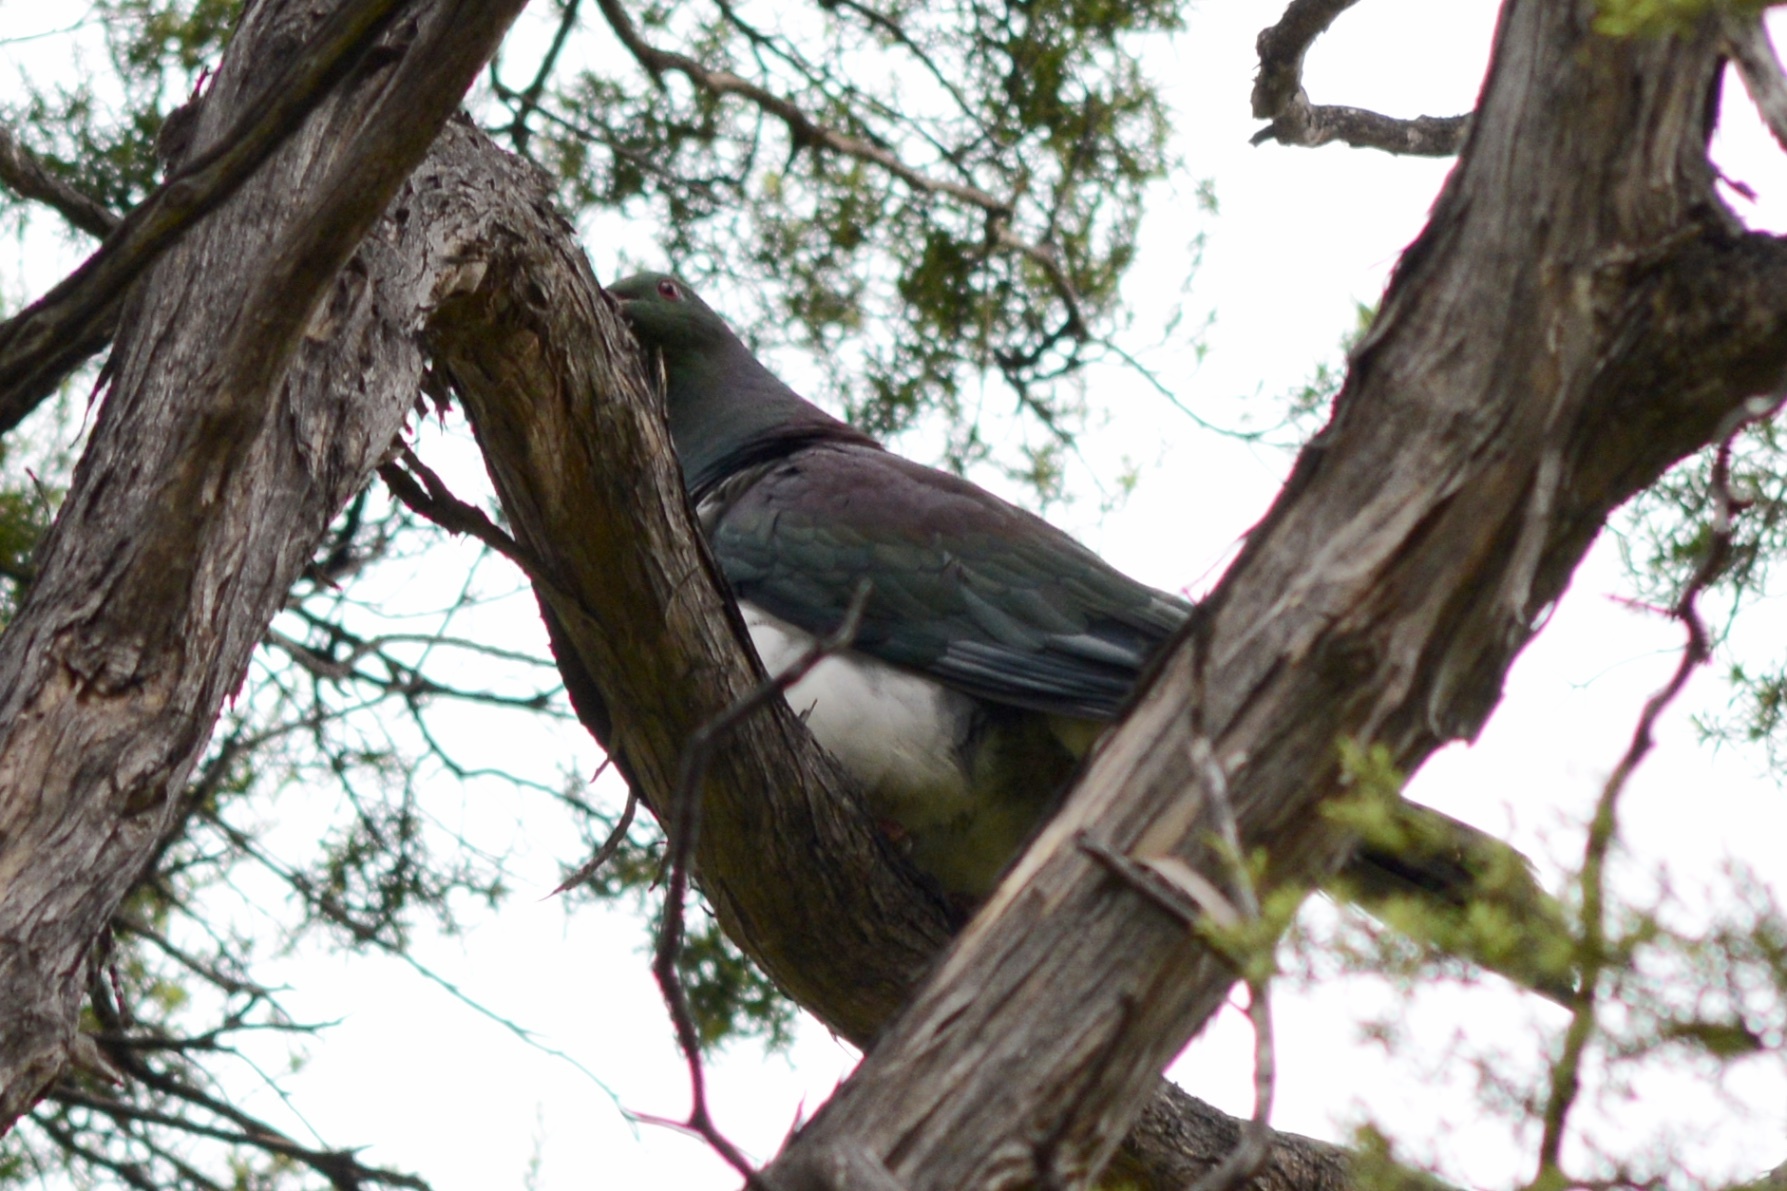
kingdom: Animalia
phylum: Chordata
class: Aves
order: Columbiformes
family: Columbidae
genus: Hemiphaga
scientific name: Hemiphaga novaeseelandiae
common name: New zealand pigeon
